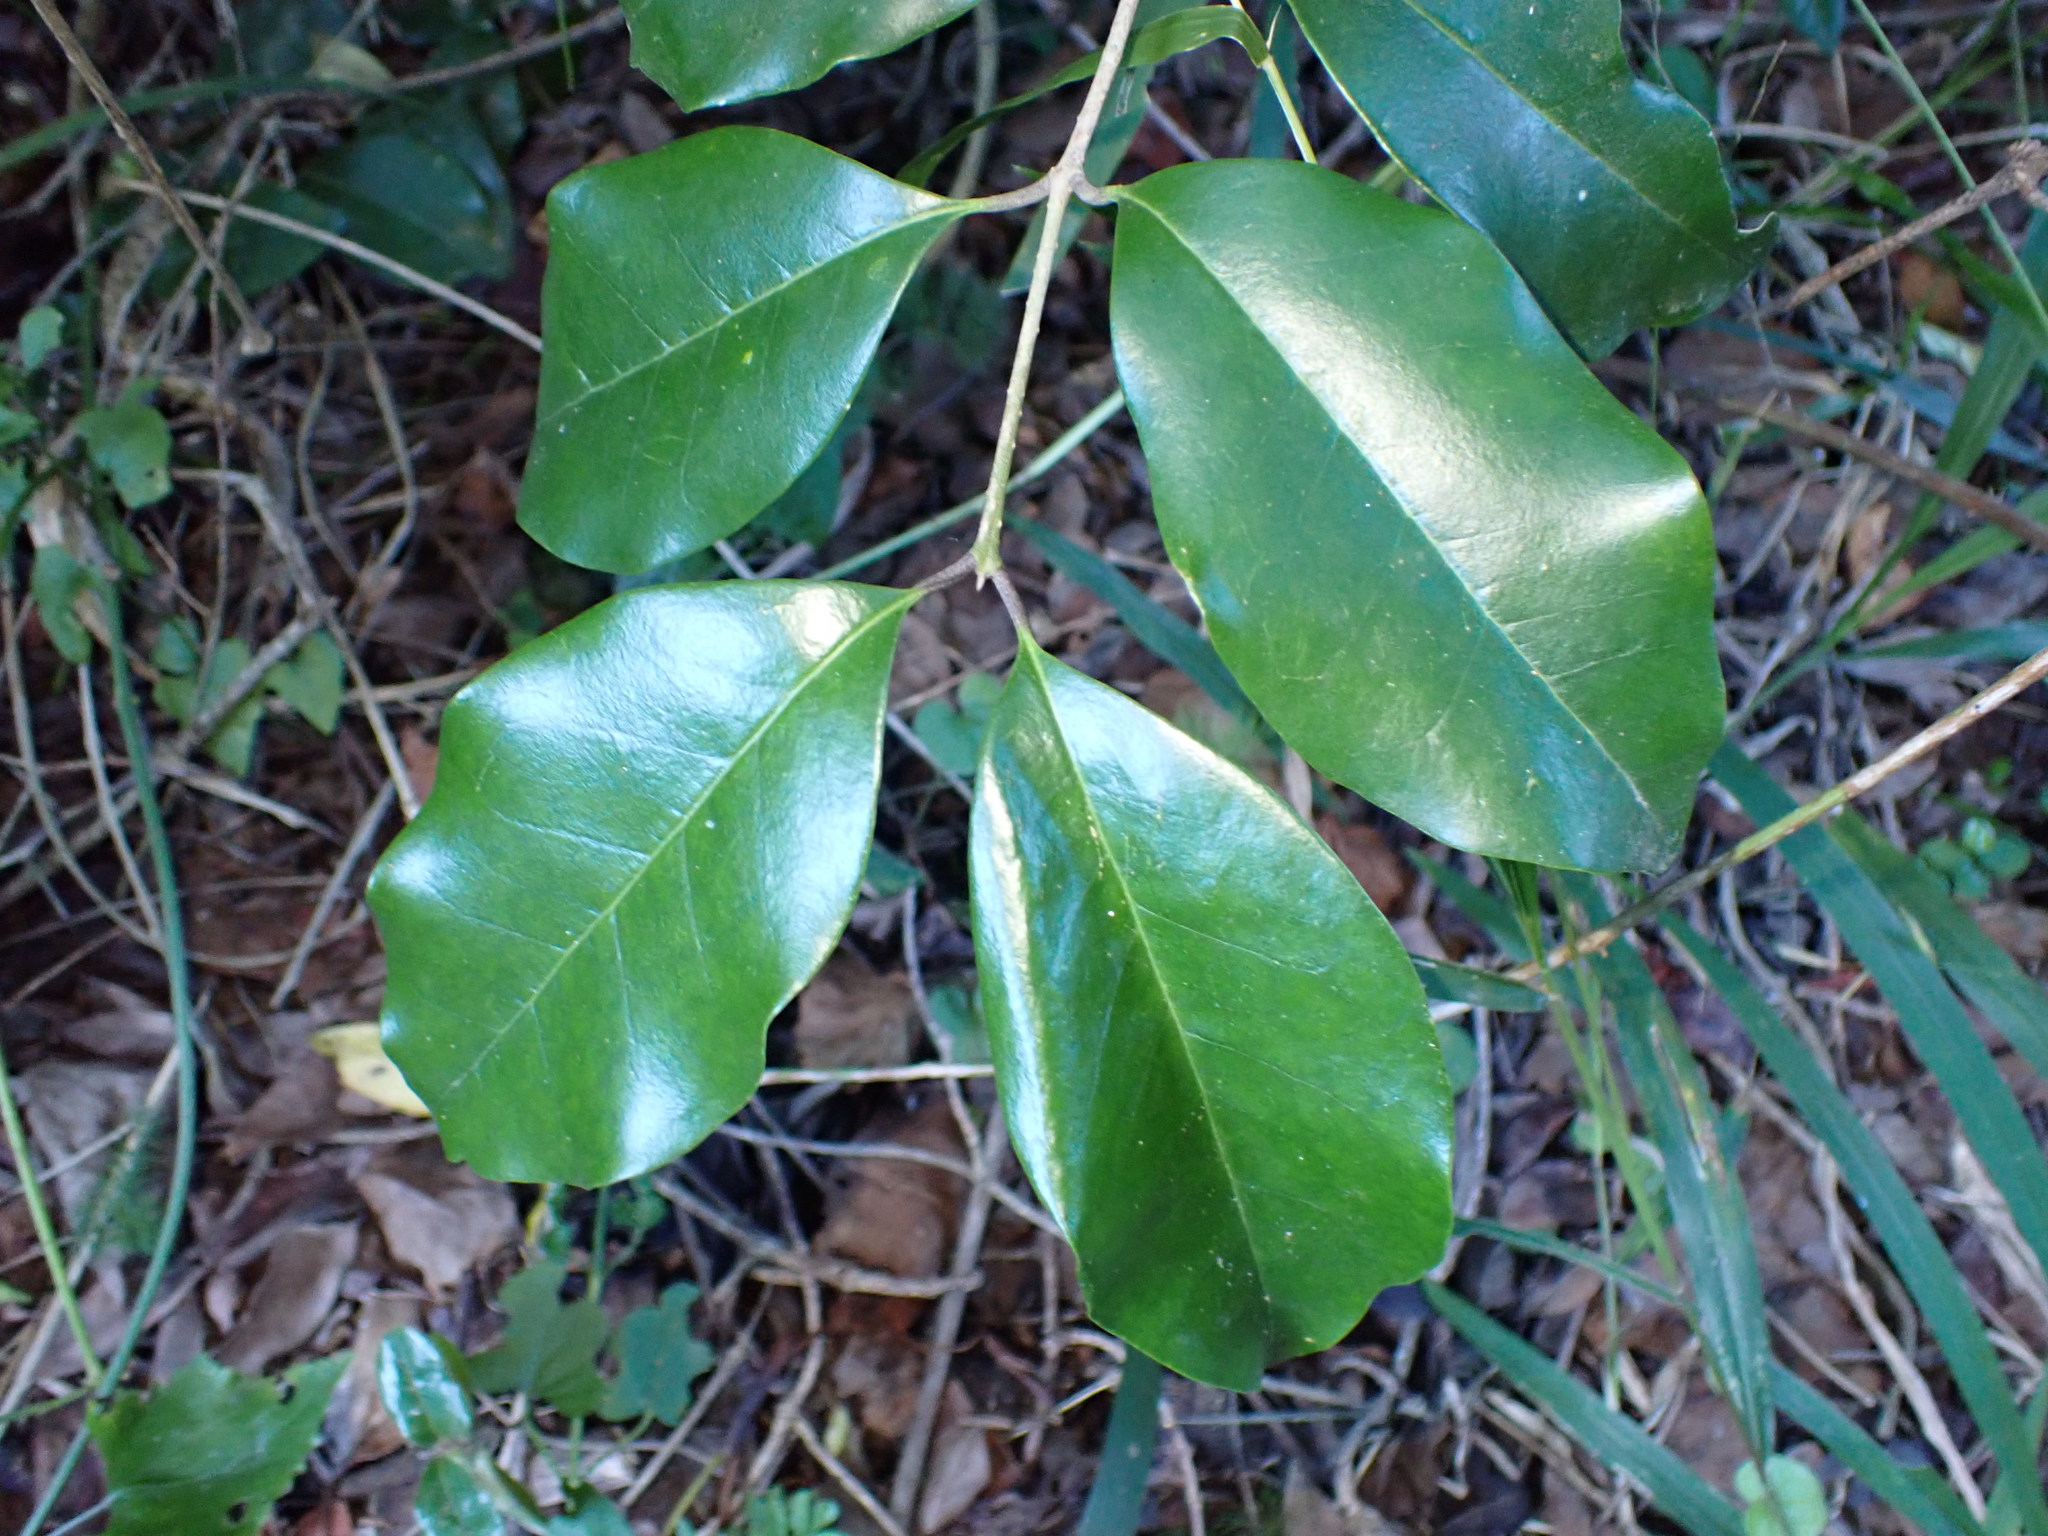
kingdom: Plantae
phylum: Tracheophyta
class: Magnoliopsida
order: Lamiales
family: Oleaceae
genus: Olea
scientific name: Olea capensis
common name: Black ironwood
